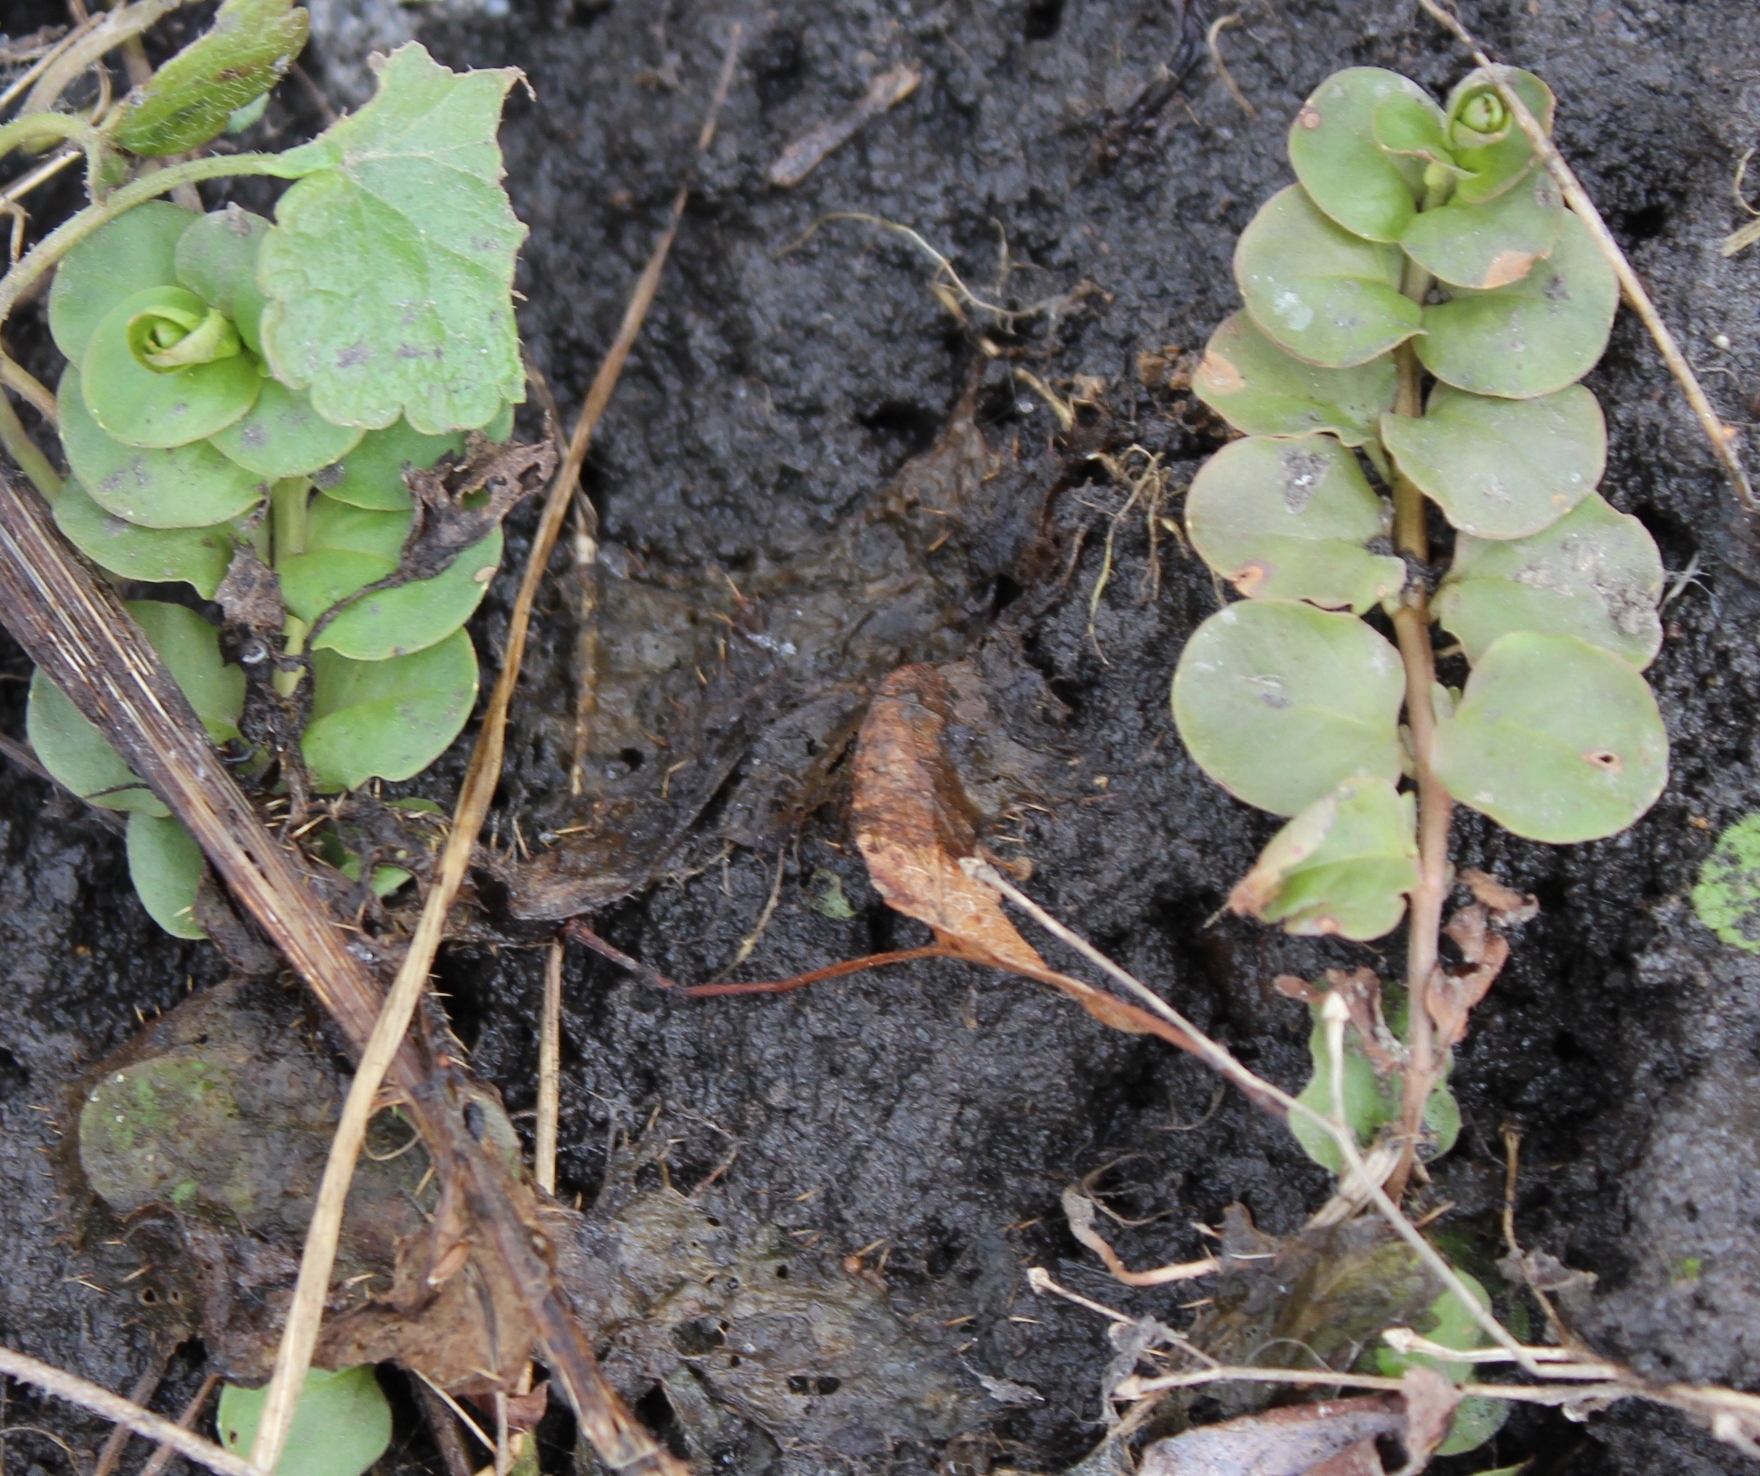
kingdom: Plantae
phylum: Tracheophyta
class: Magnoliopsida
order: Ericales
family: Primulaceae
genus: Lysimachia
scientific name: Lysimachia nummularia
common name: Moneywort
